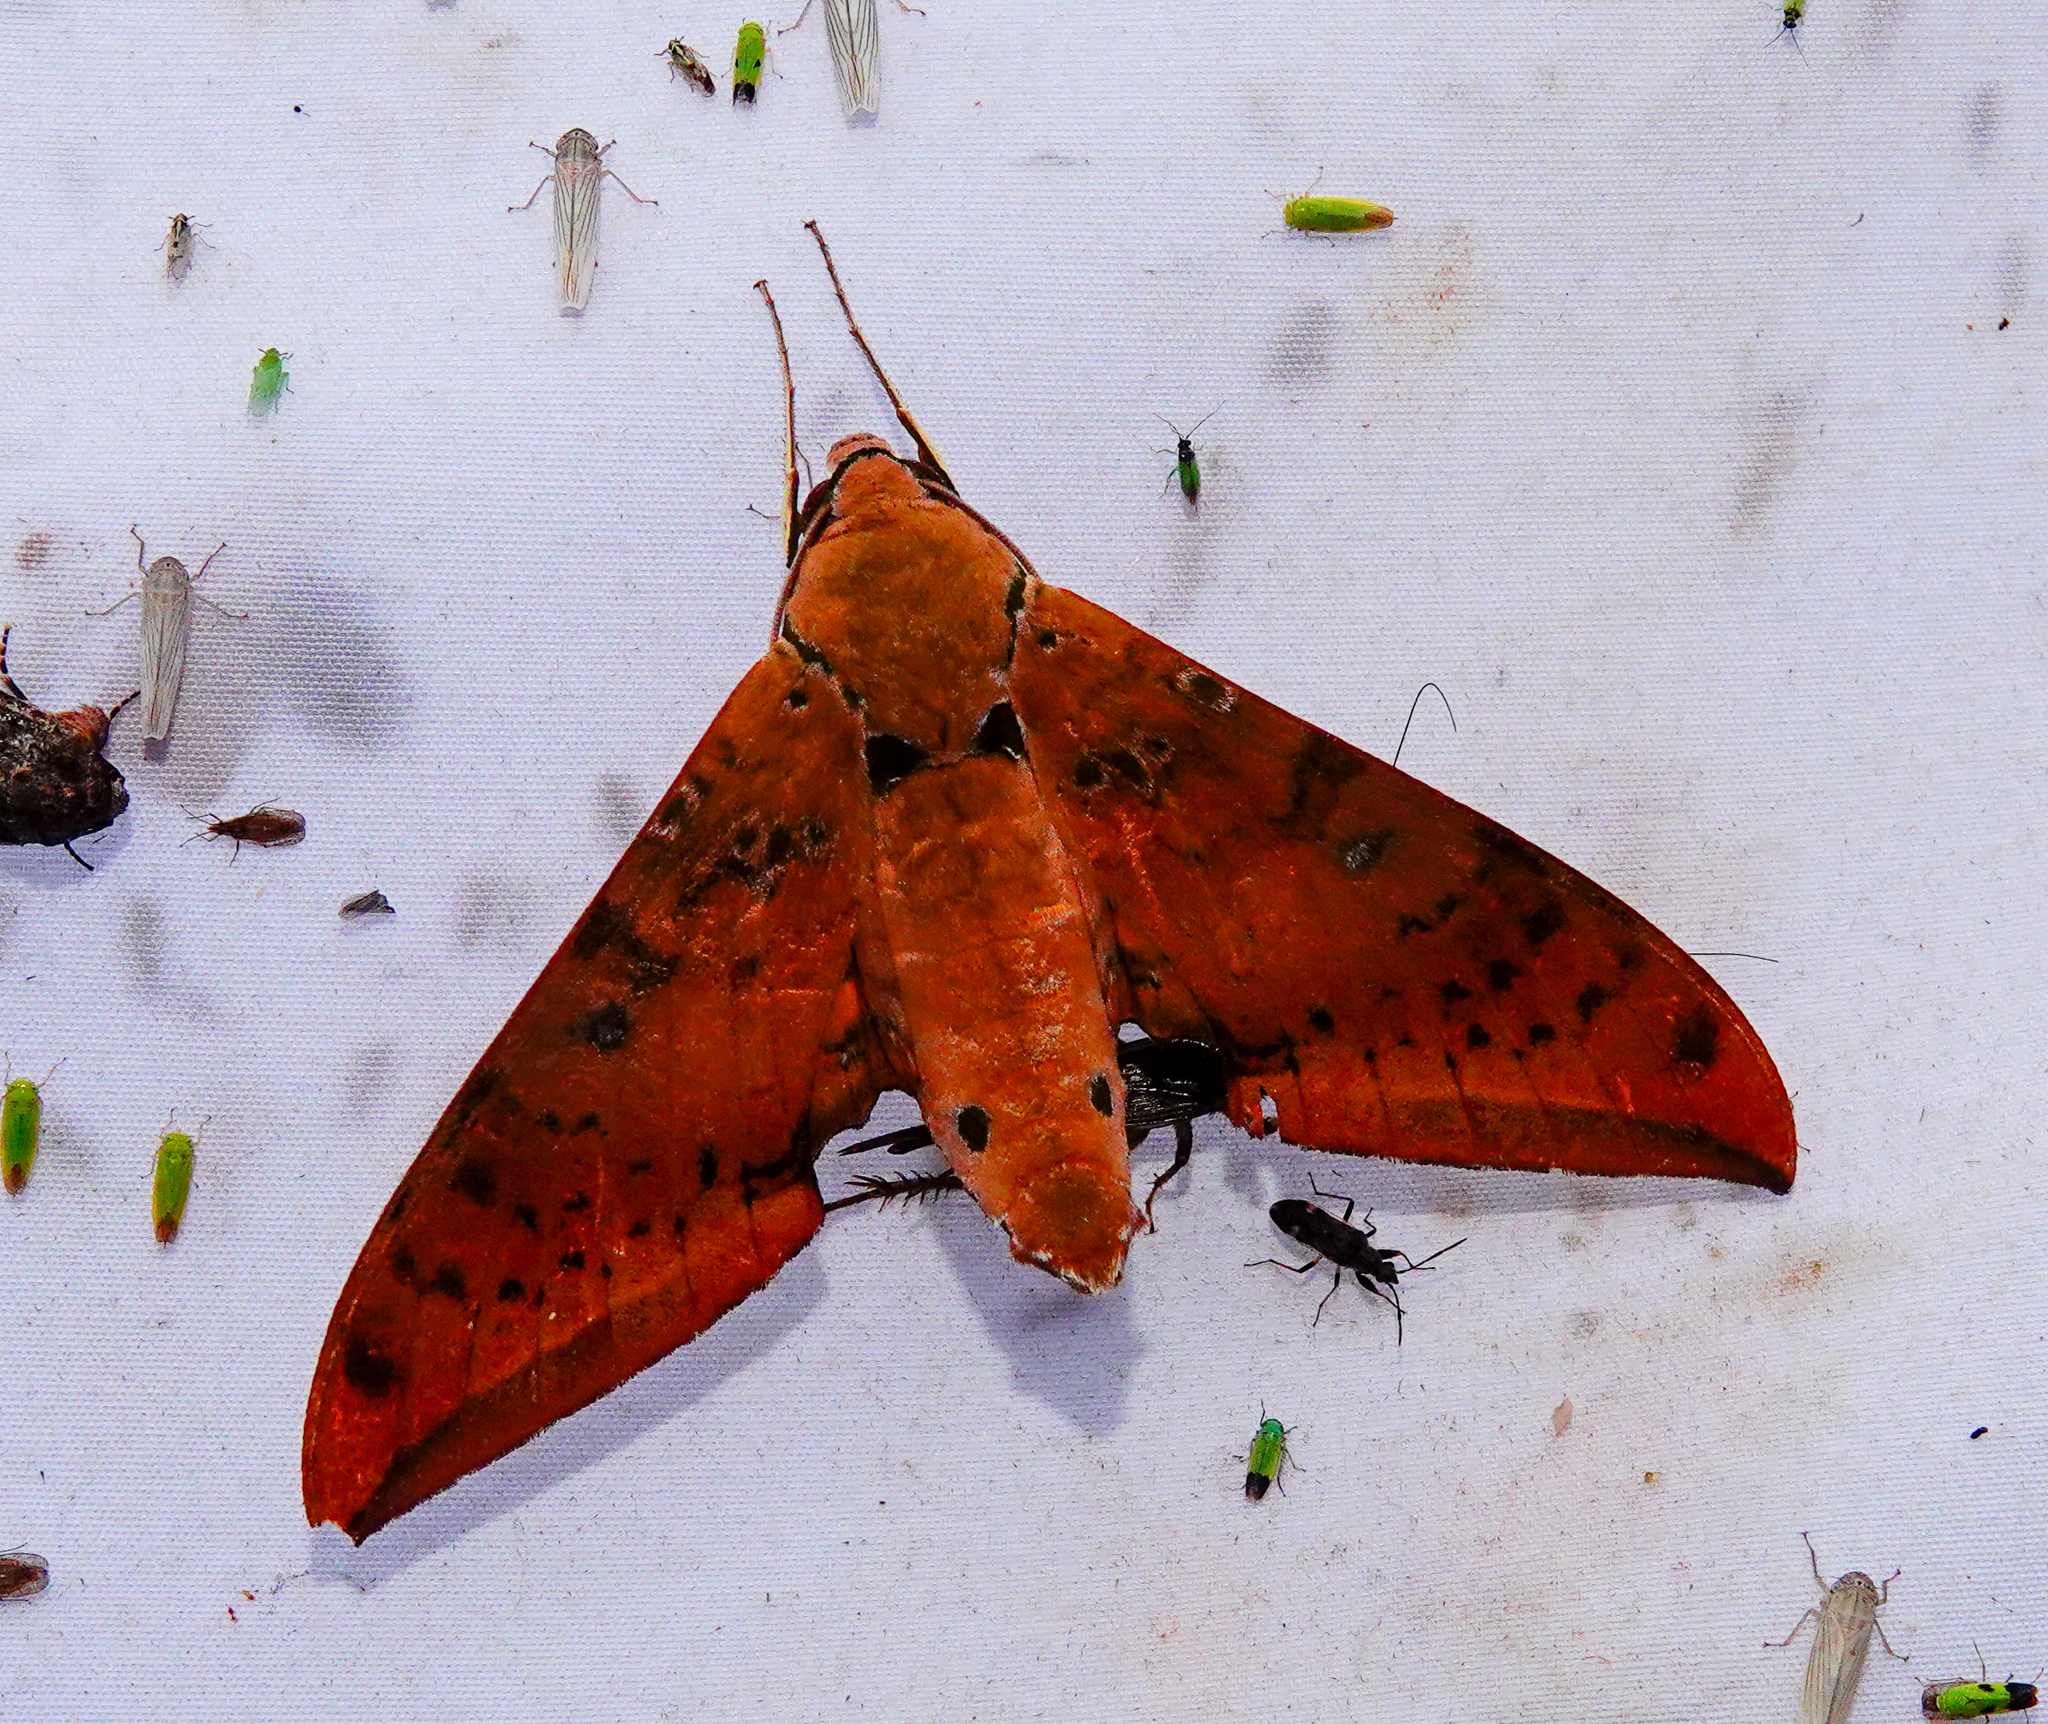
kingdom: Animalia
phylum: Arthropoda
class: Insecta
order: Lepidoptera
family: Sphingidae
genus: Ambulyx
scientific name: Ambulyx moorei
